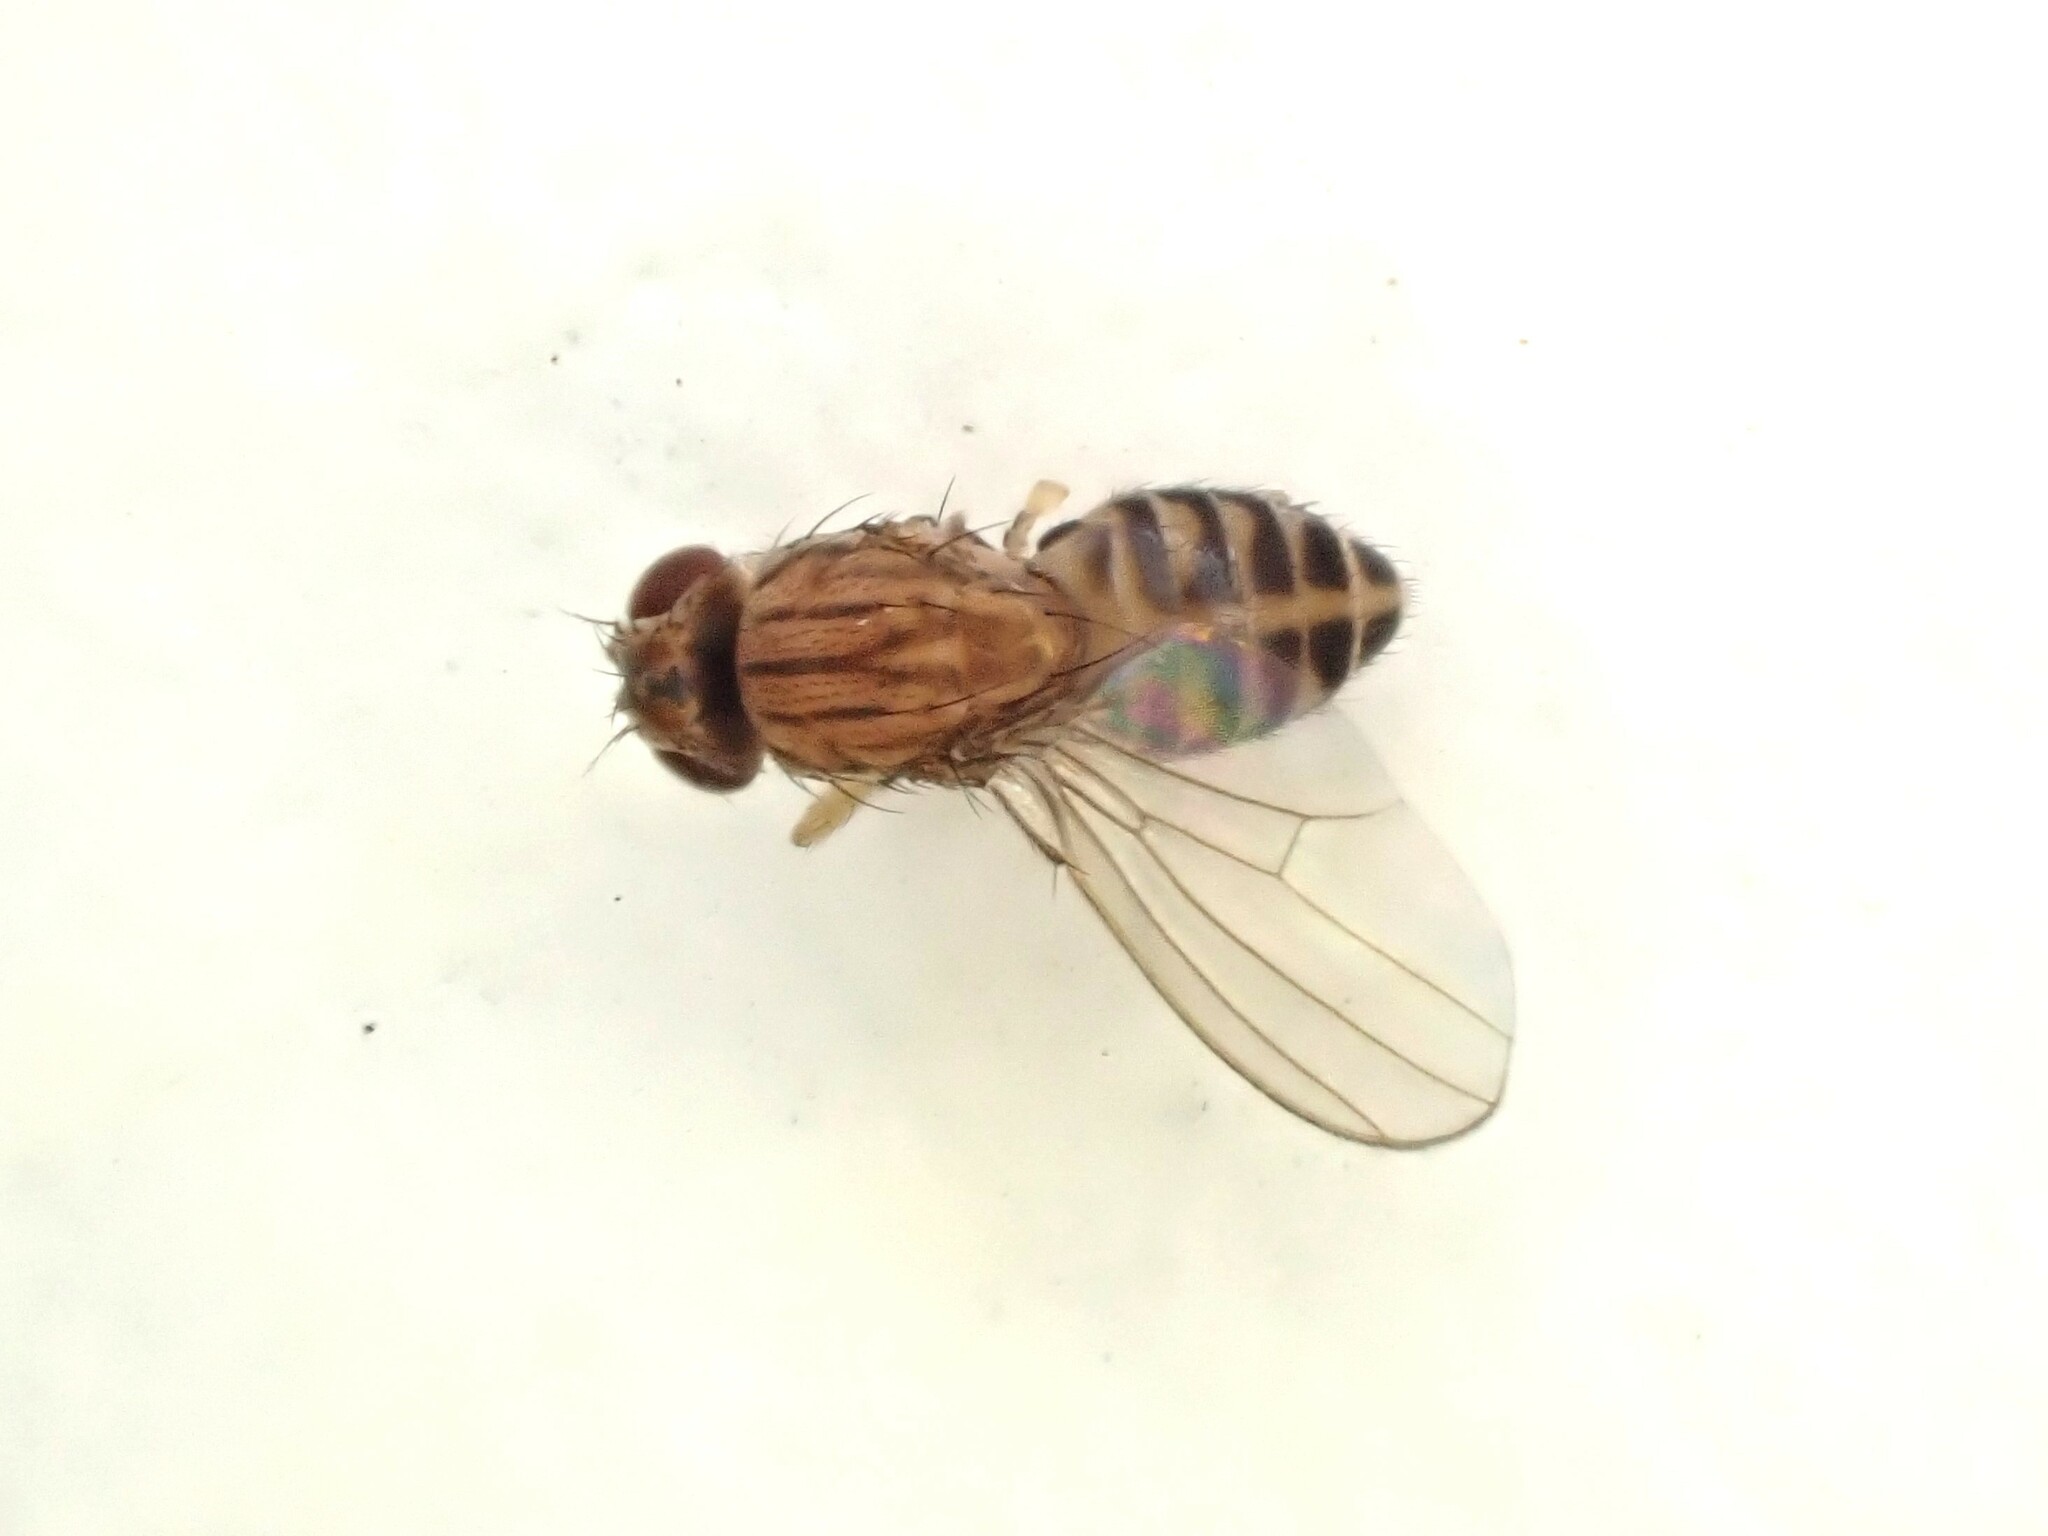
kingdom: Animalia
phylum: Arthropoda
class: Insecta
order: Diptera
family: Drosophilidae
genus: Drosophila
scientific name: Drosophila busckii
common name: Pomace fly
